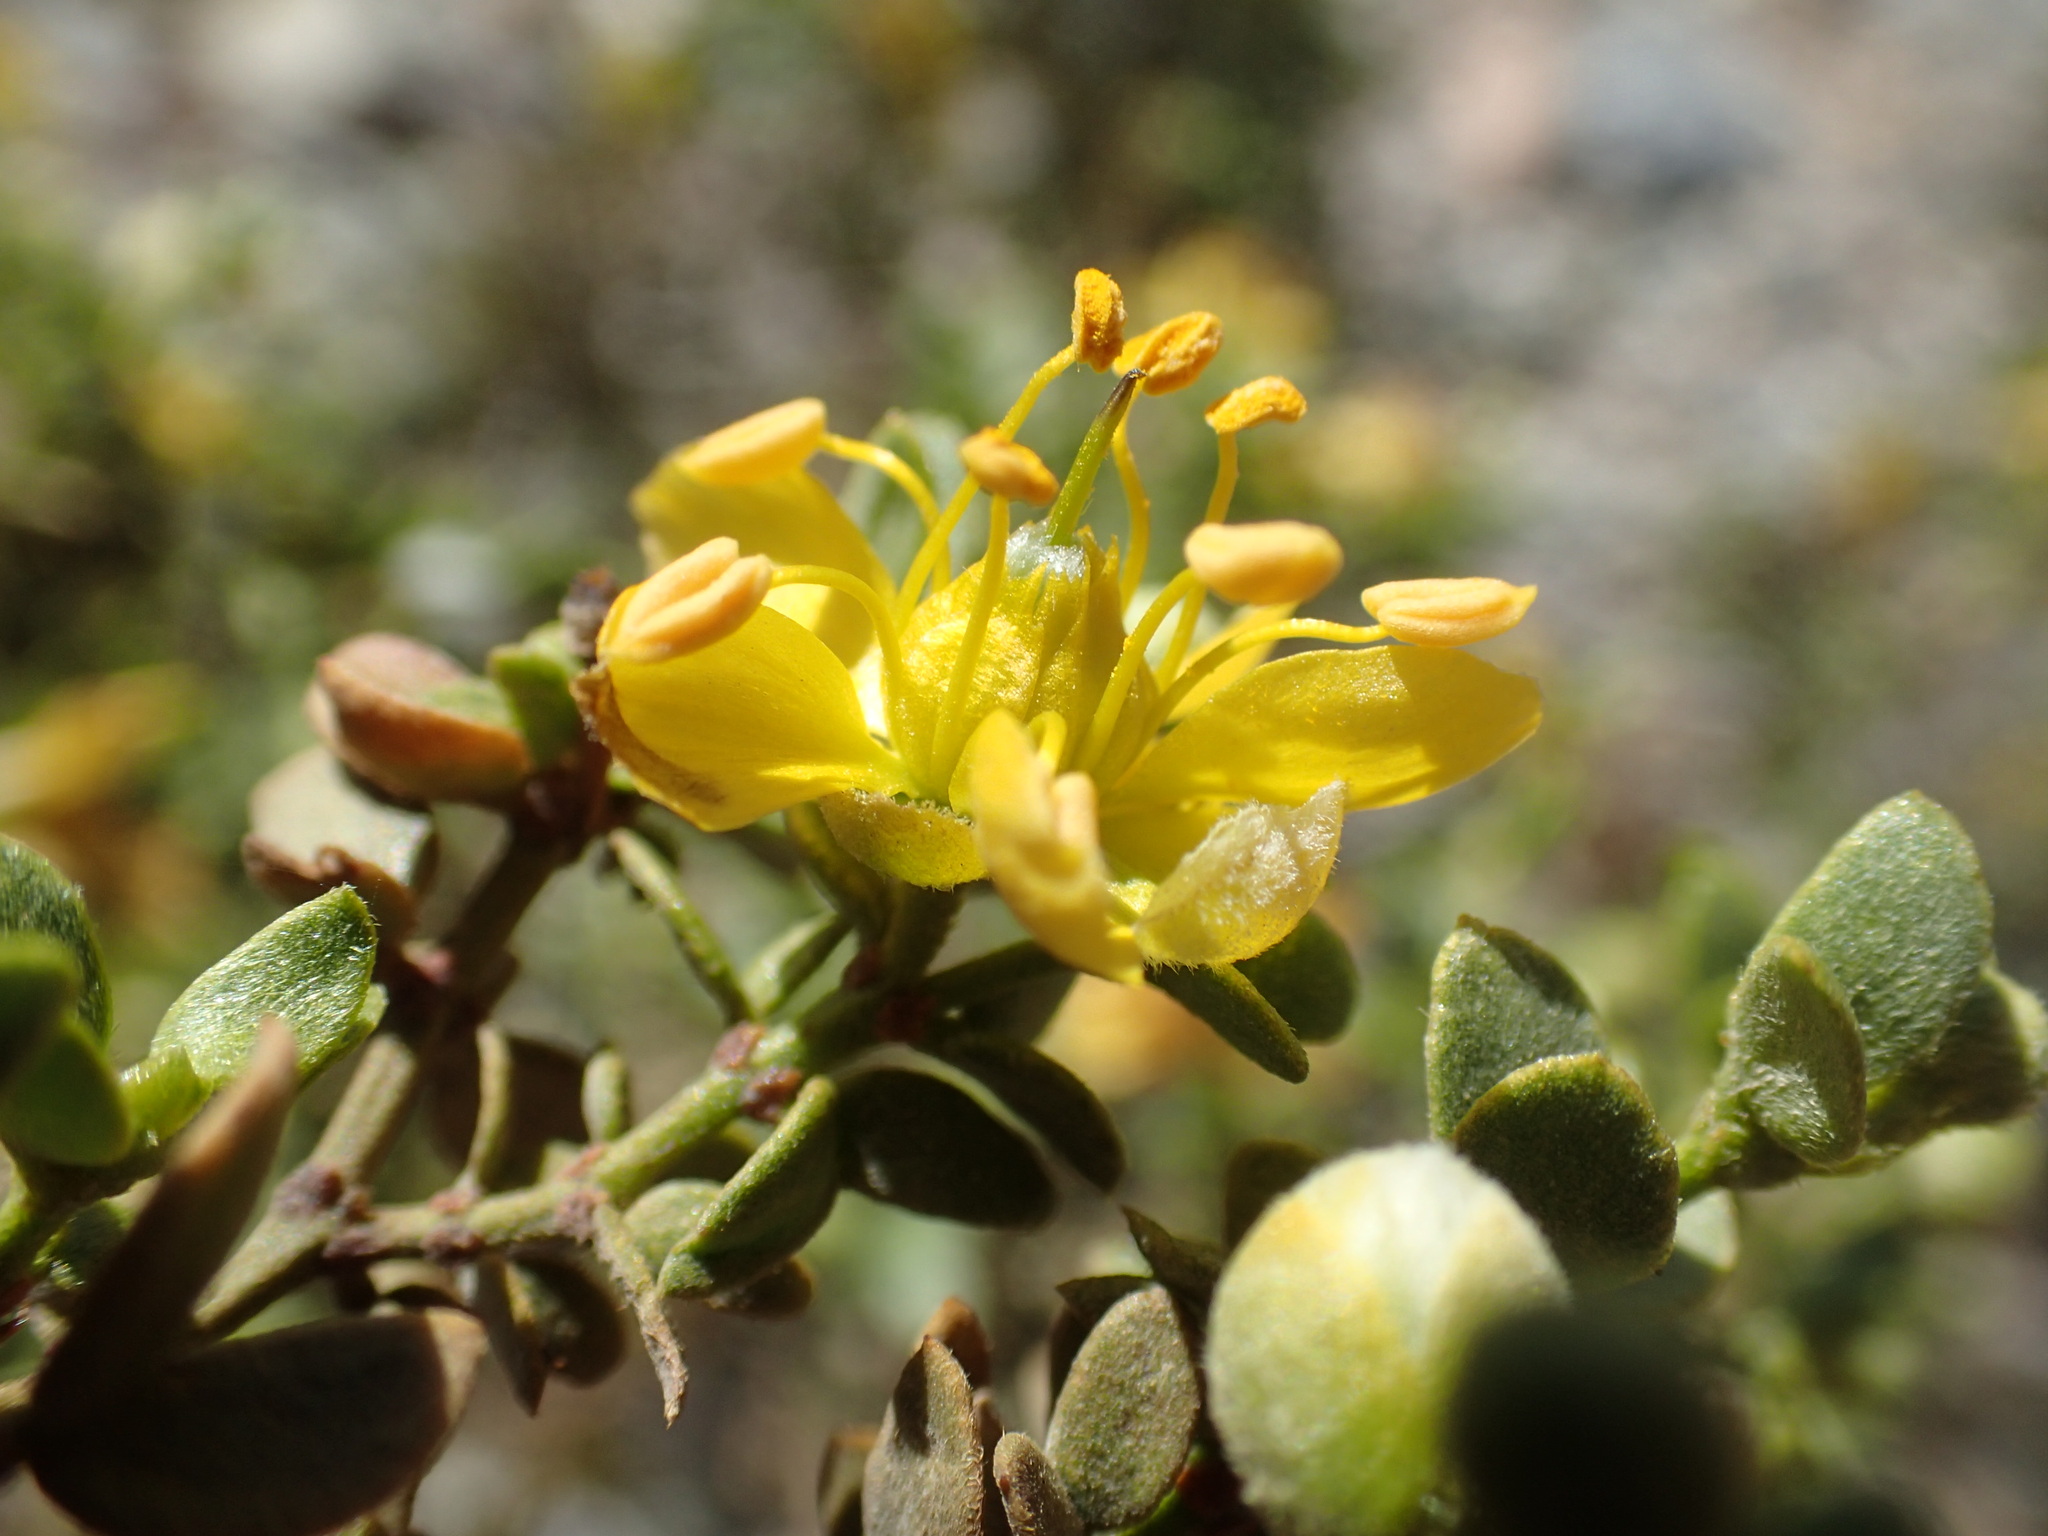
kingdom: Plantae
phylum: Tracheophyta
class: Magnoliopsida
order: Zygophyllales
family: Zygophyllaceae
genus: Larrea
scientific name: Larrea tridentata
